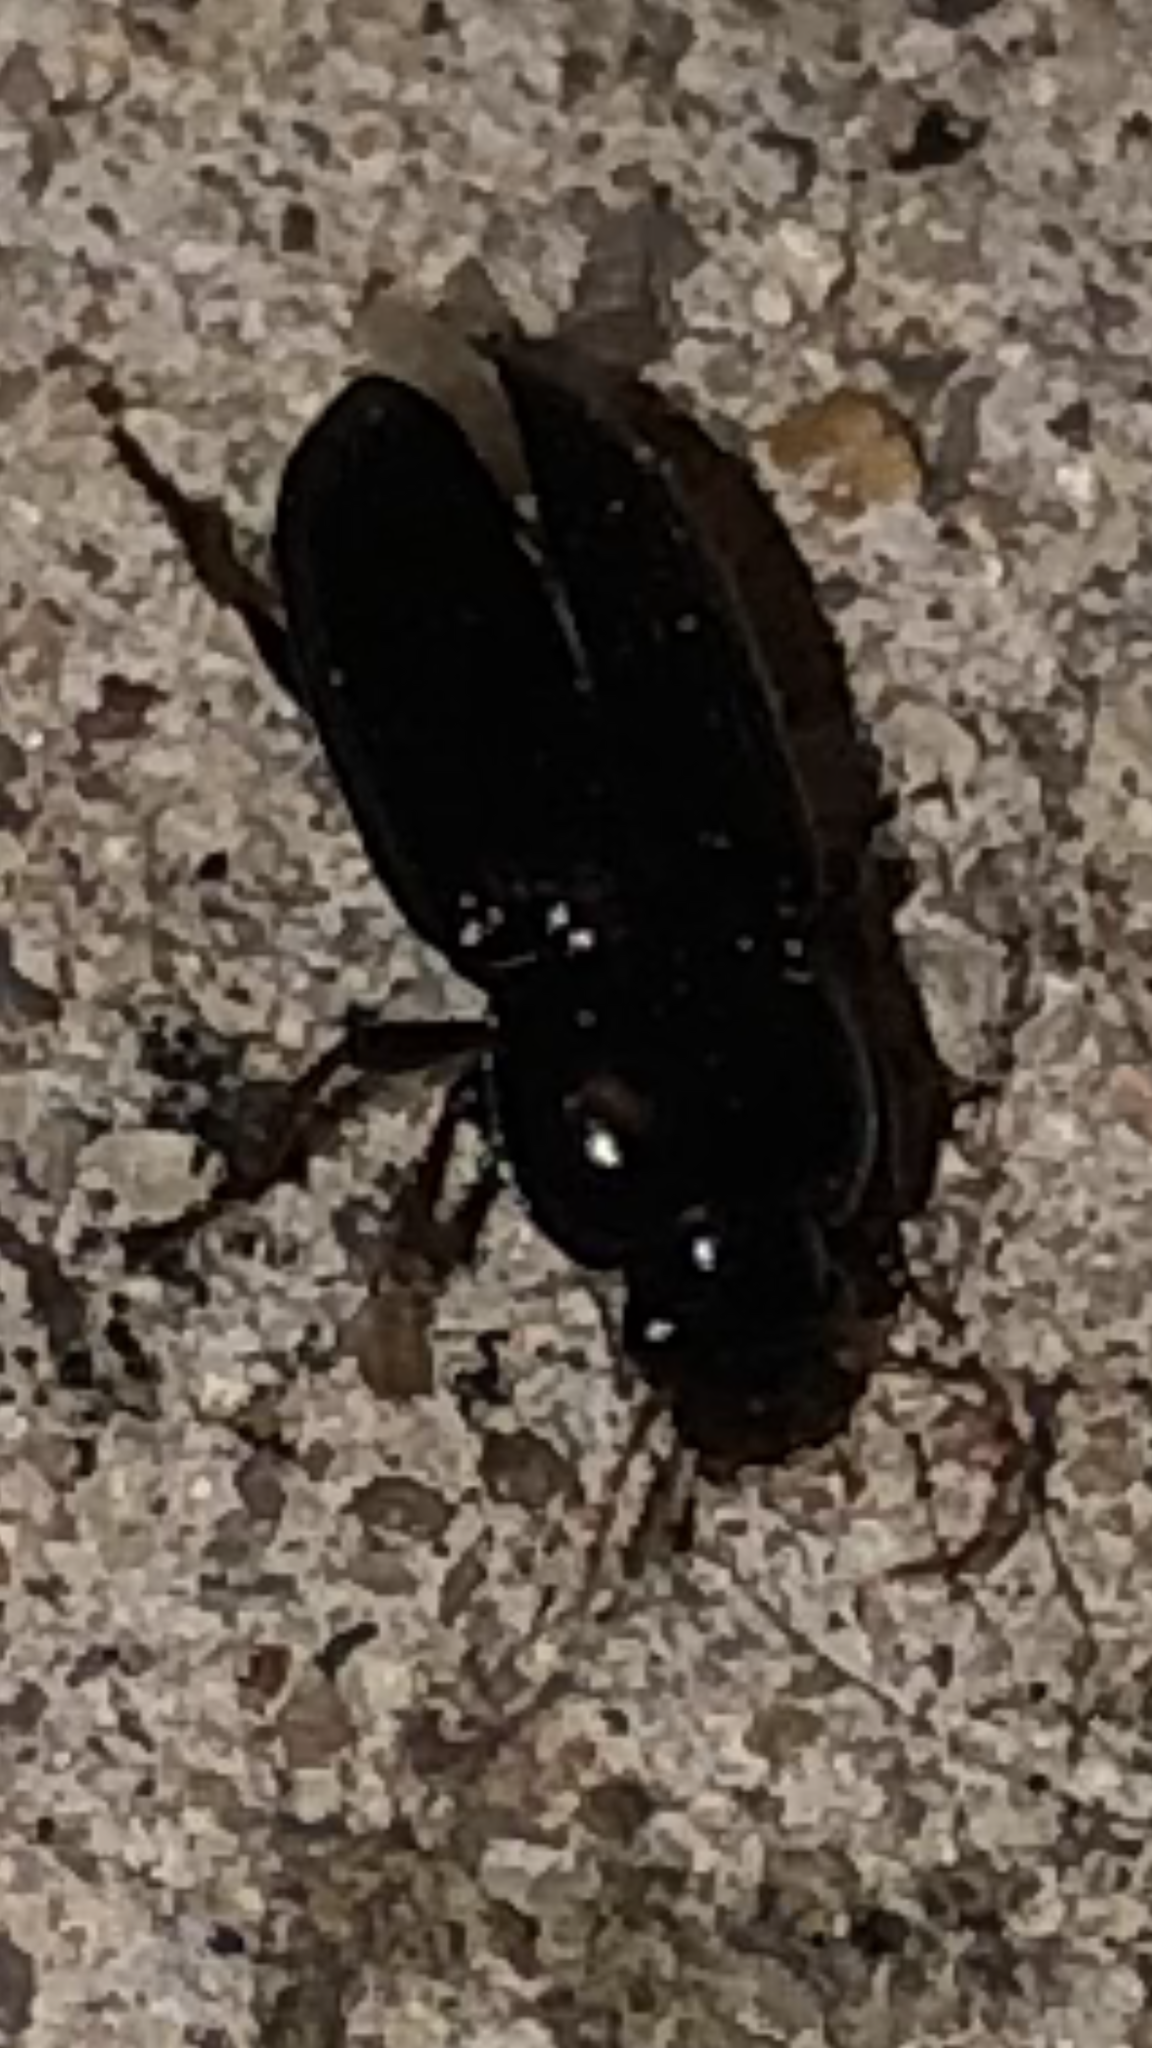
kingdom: Animalia
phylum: Arthropoda
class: Insecta
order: Coleoptera
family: Carabidae
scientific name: Carabidae
